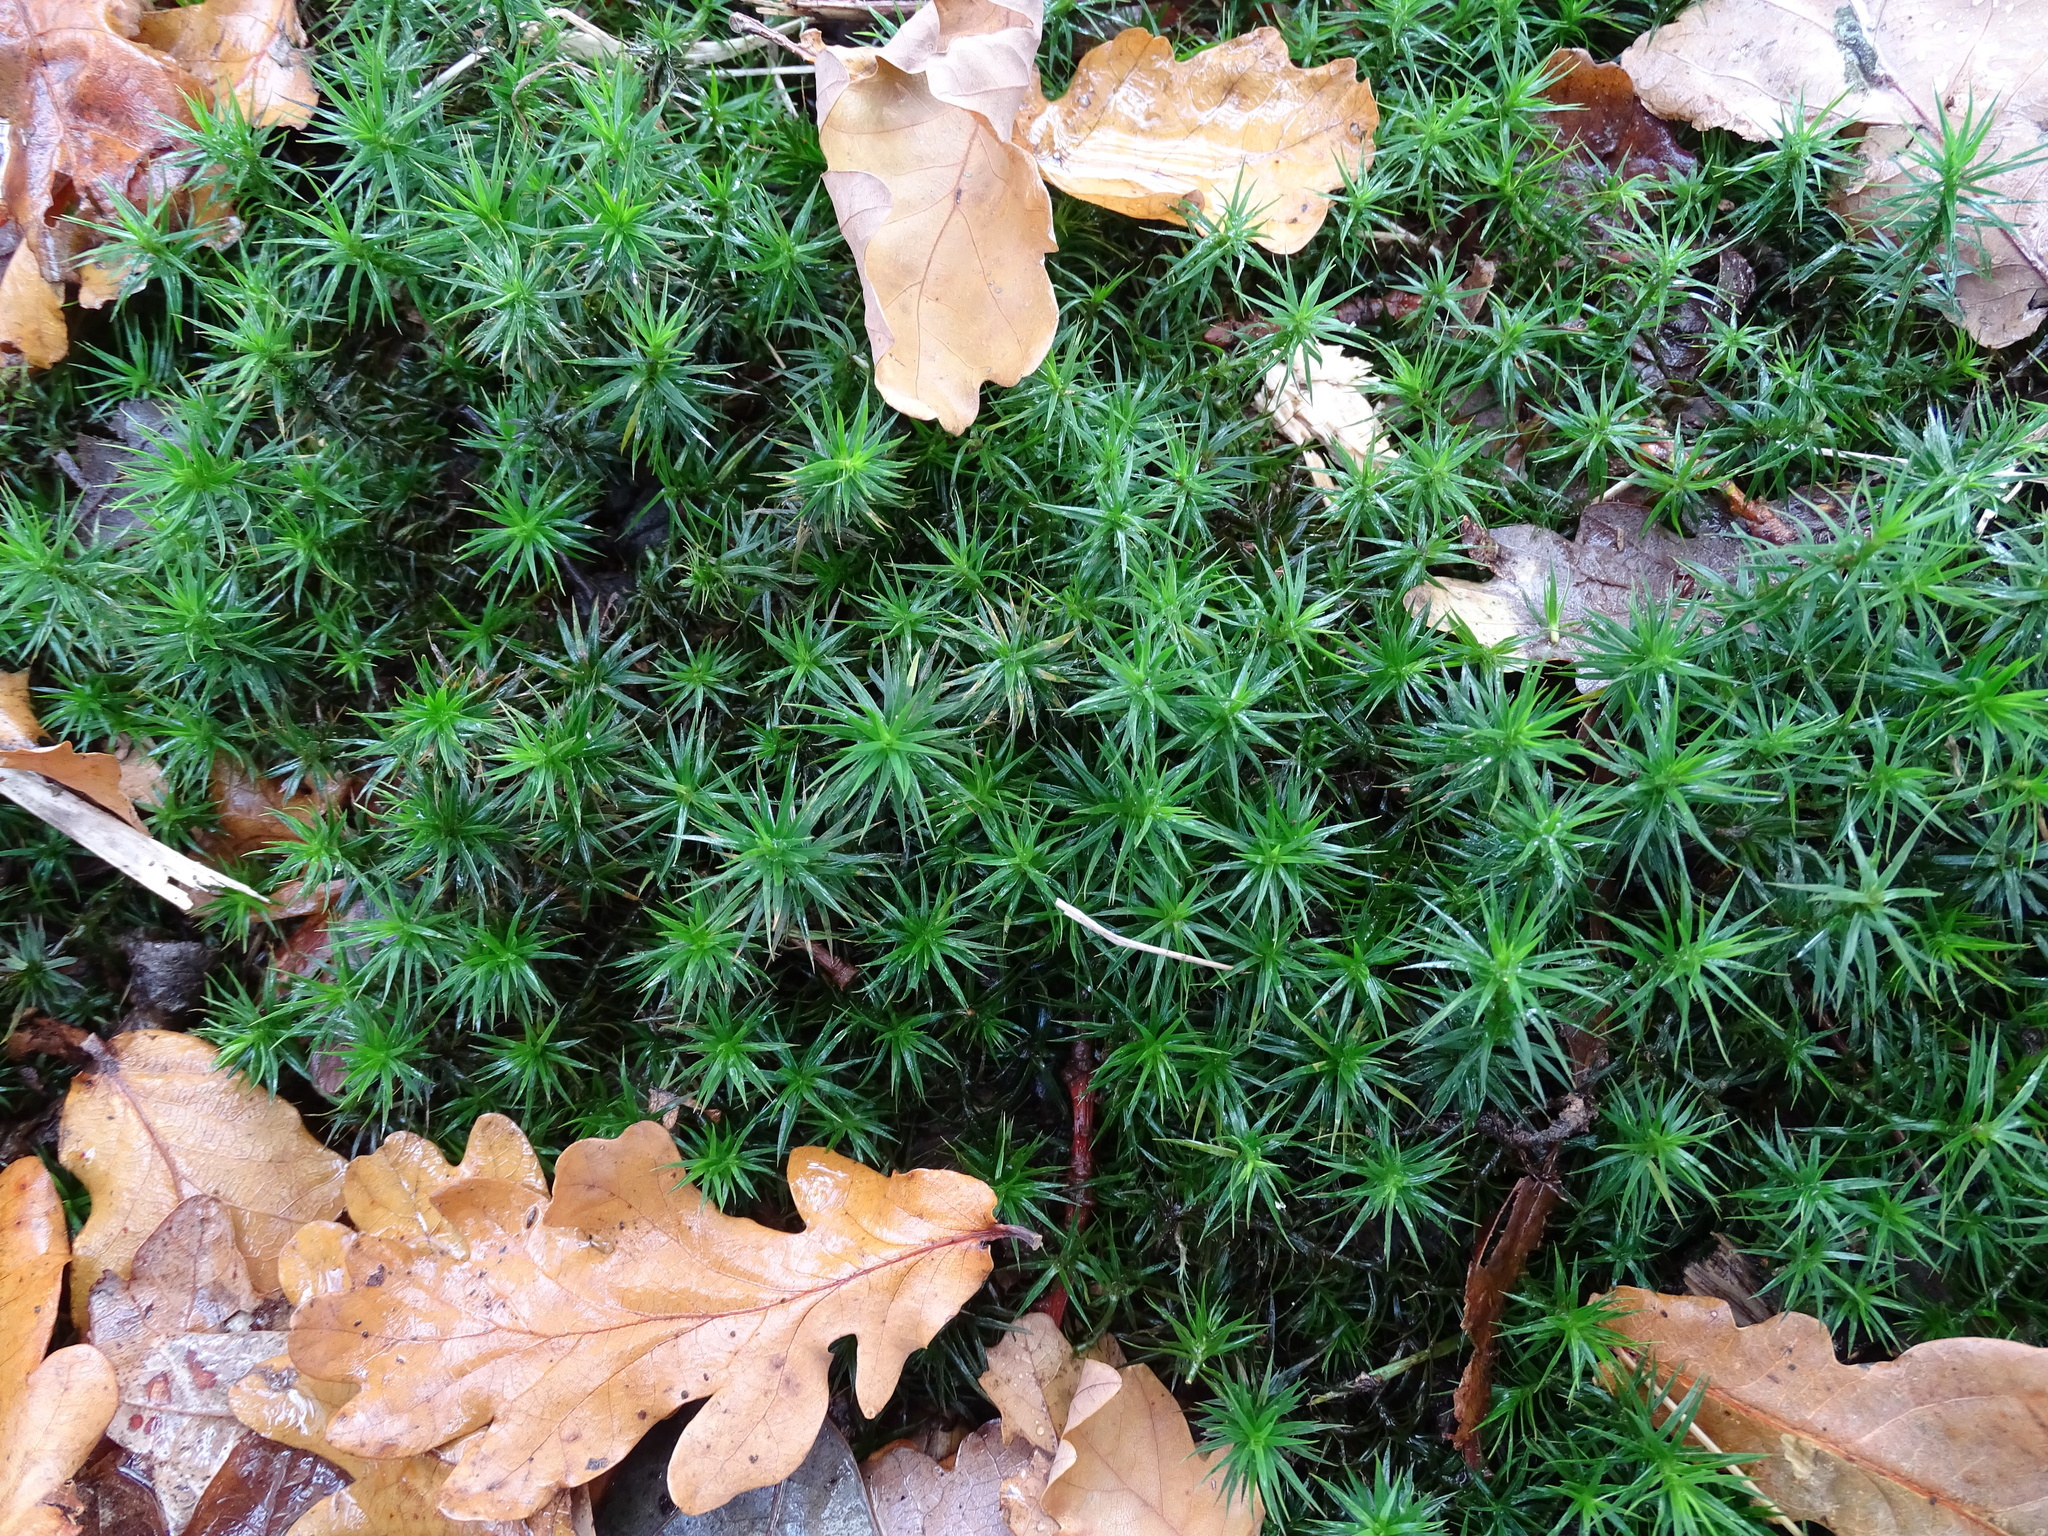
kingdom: Plantae
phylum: Bryophyta
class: Polytrichopsida
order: Polytrichales
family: Polytrichaceae
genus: Polytrichum
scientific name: Polytrichum formosum
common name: Bank haircap moss
